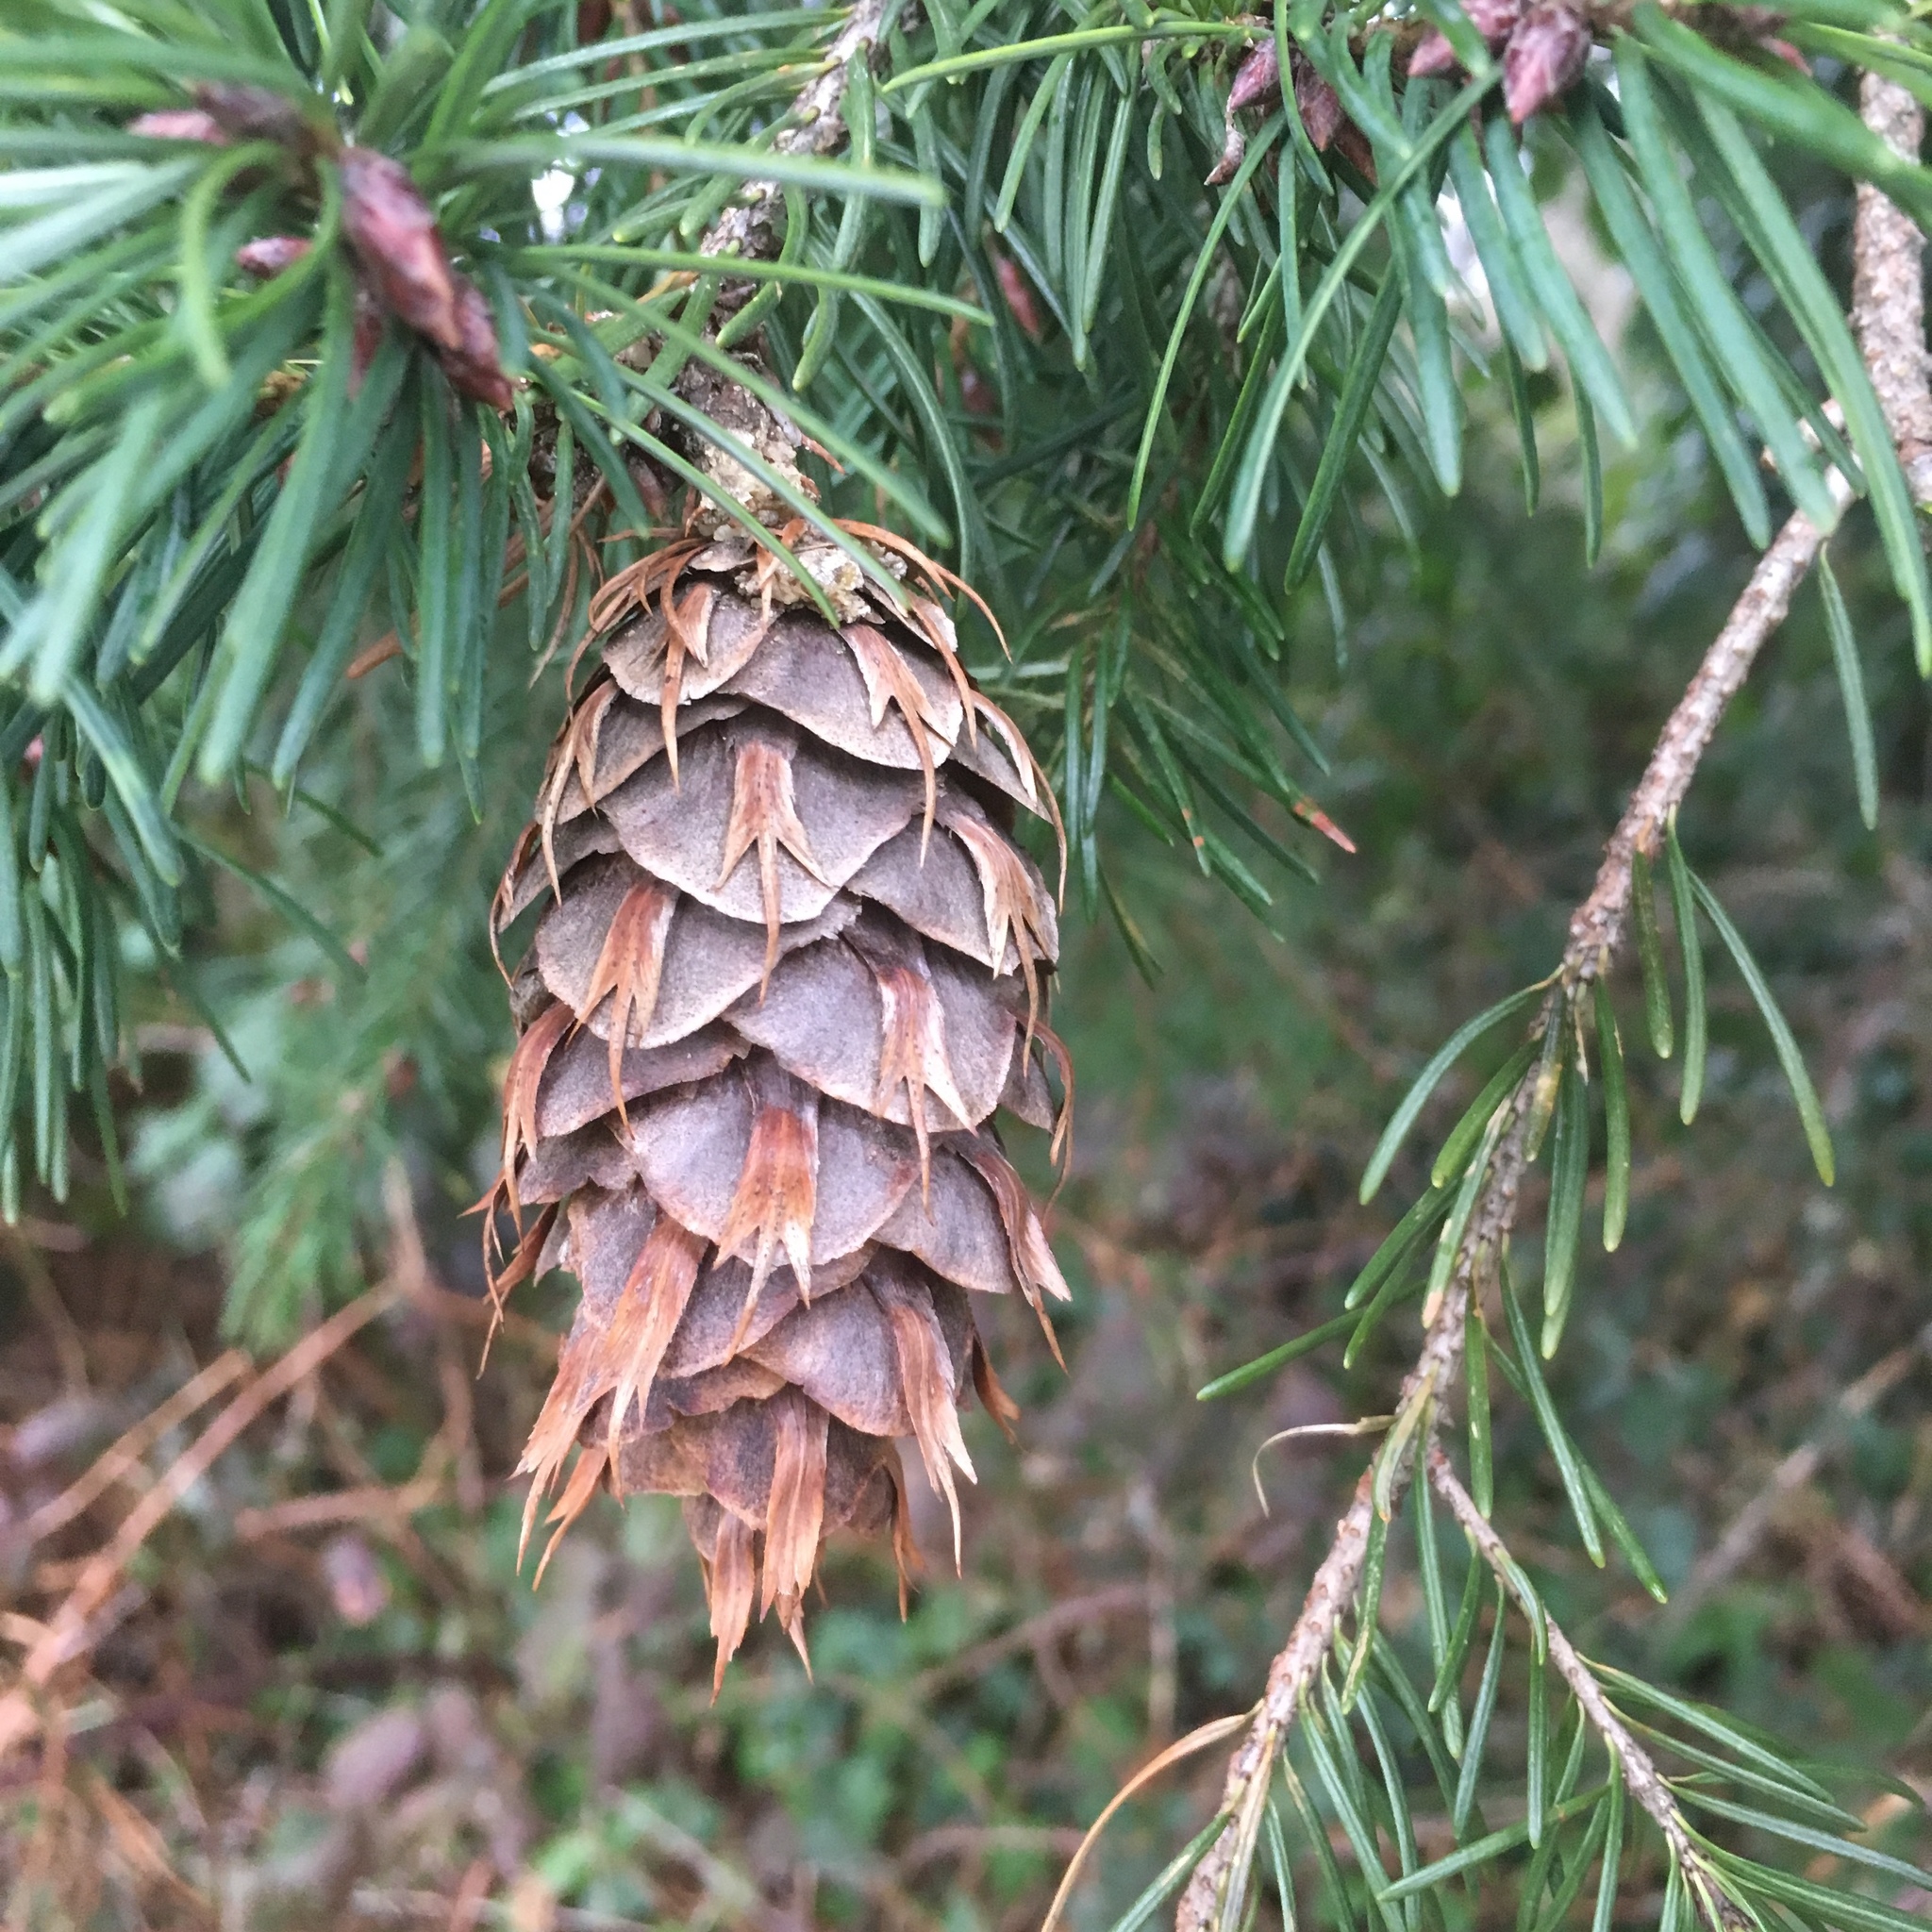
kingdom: Plantae
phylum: Tracheophyta
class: Pinopsida
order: Pinales
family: Pinaceae
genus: Pseudotsuga
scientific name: Pseudotsuga menziesii
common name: Douglas fir
